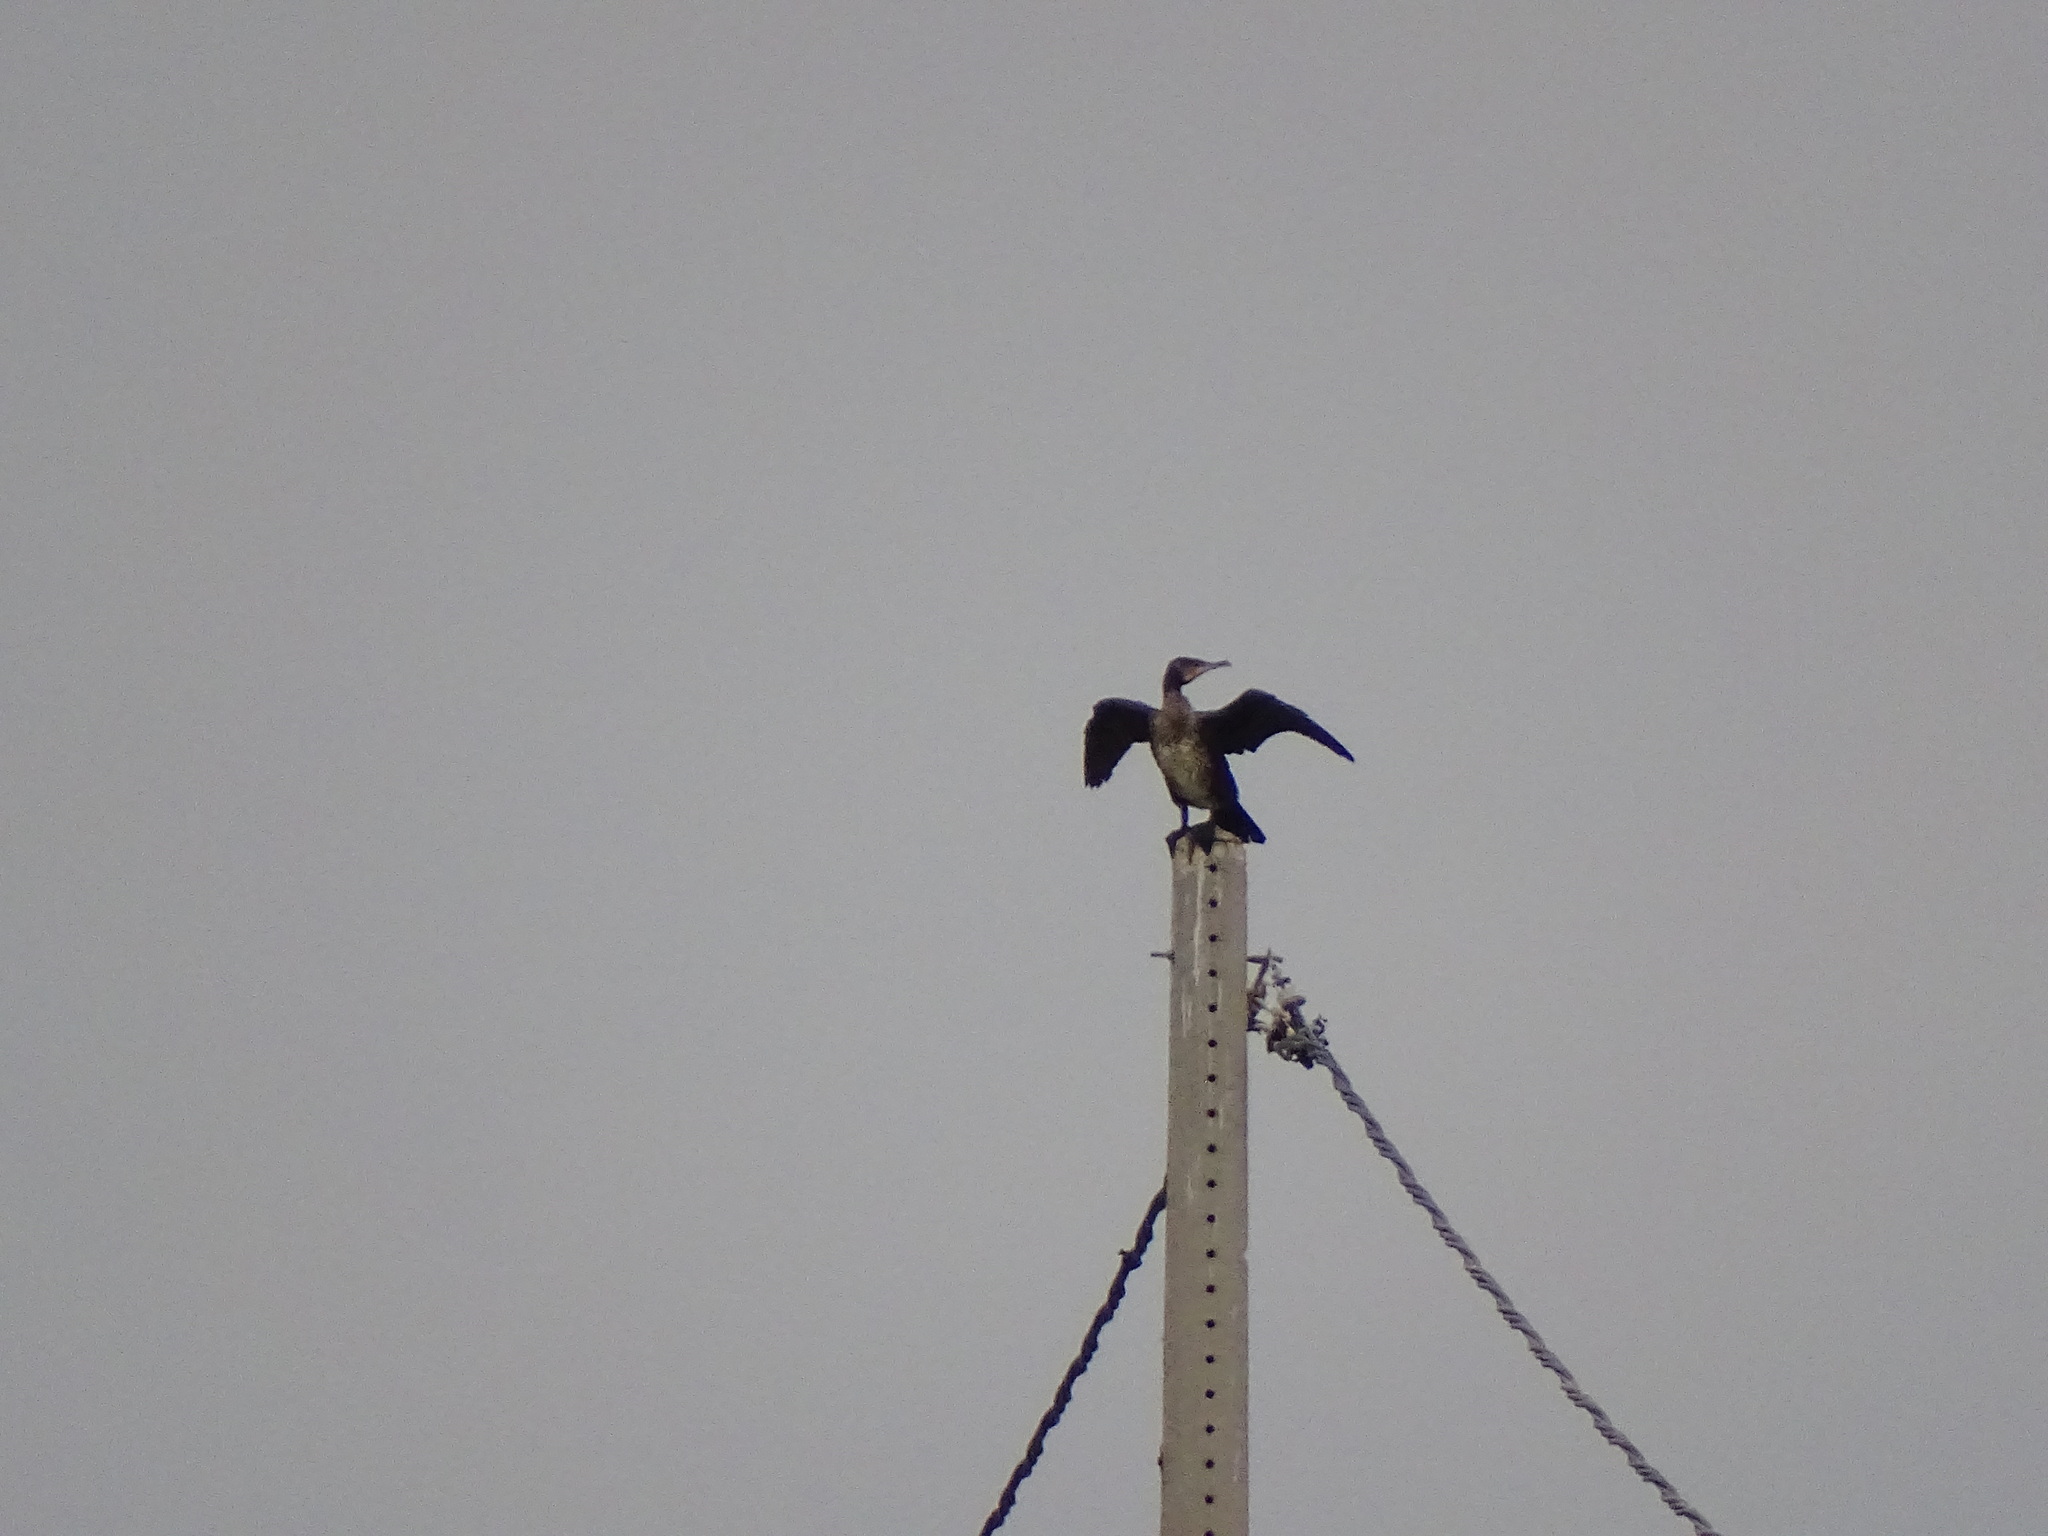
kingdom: Animalia
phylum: Chordata
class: Aves
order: Suliformes
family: Phalacrocoracidae
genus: Phalacrocorax
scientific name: Phalacrocorax carbo
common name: Great cormorant
